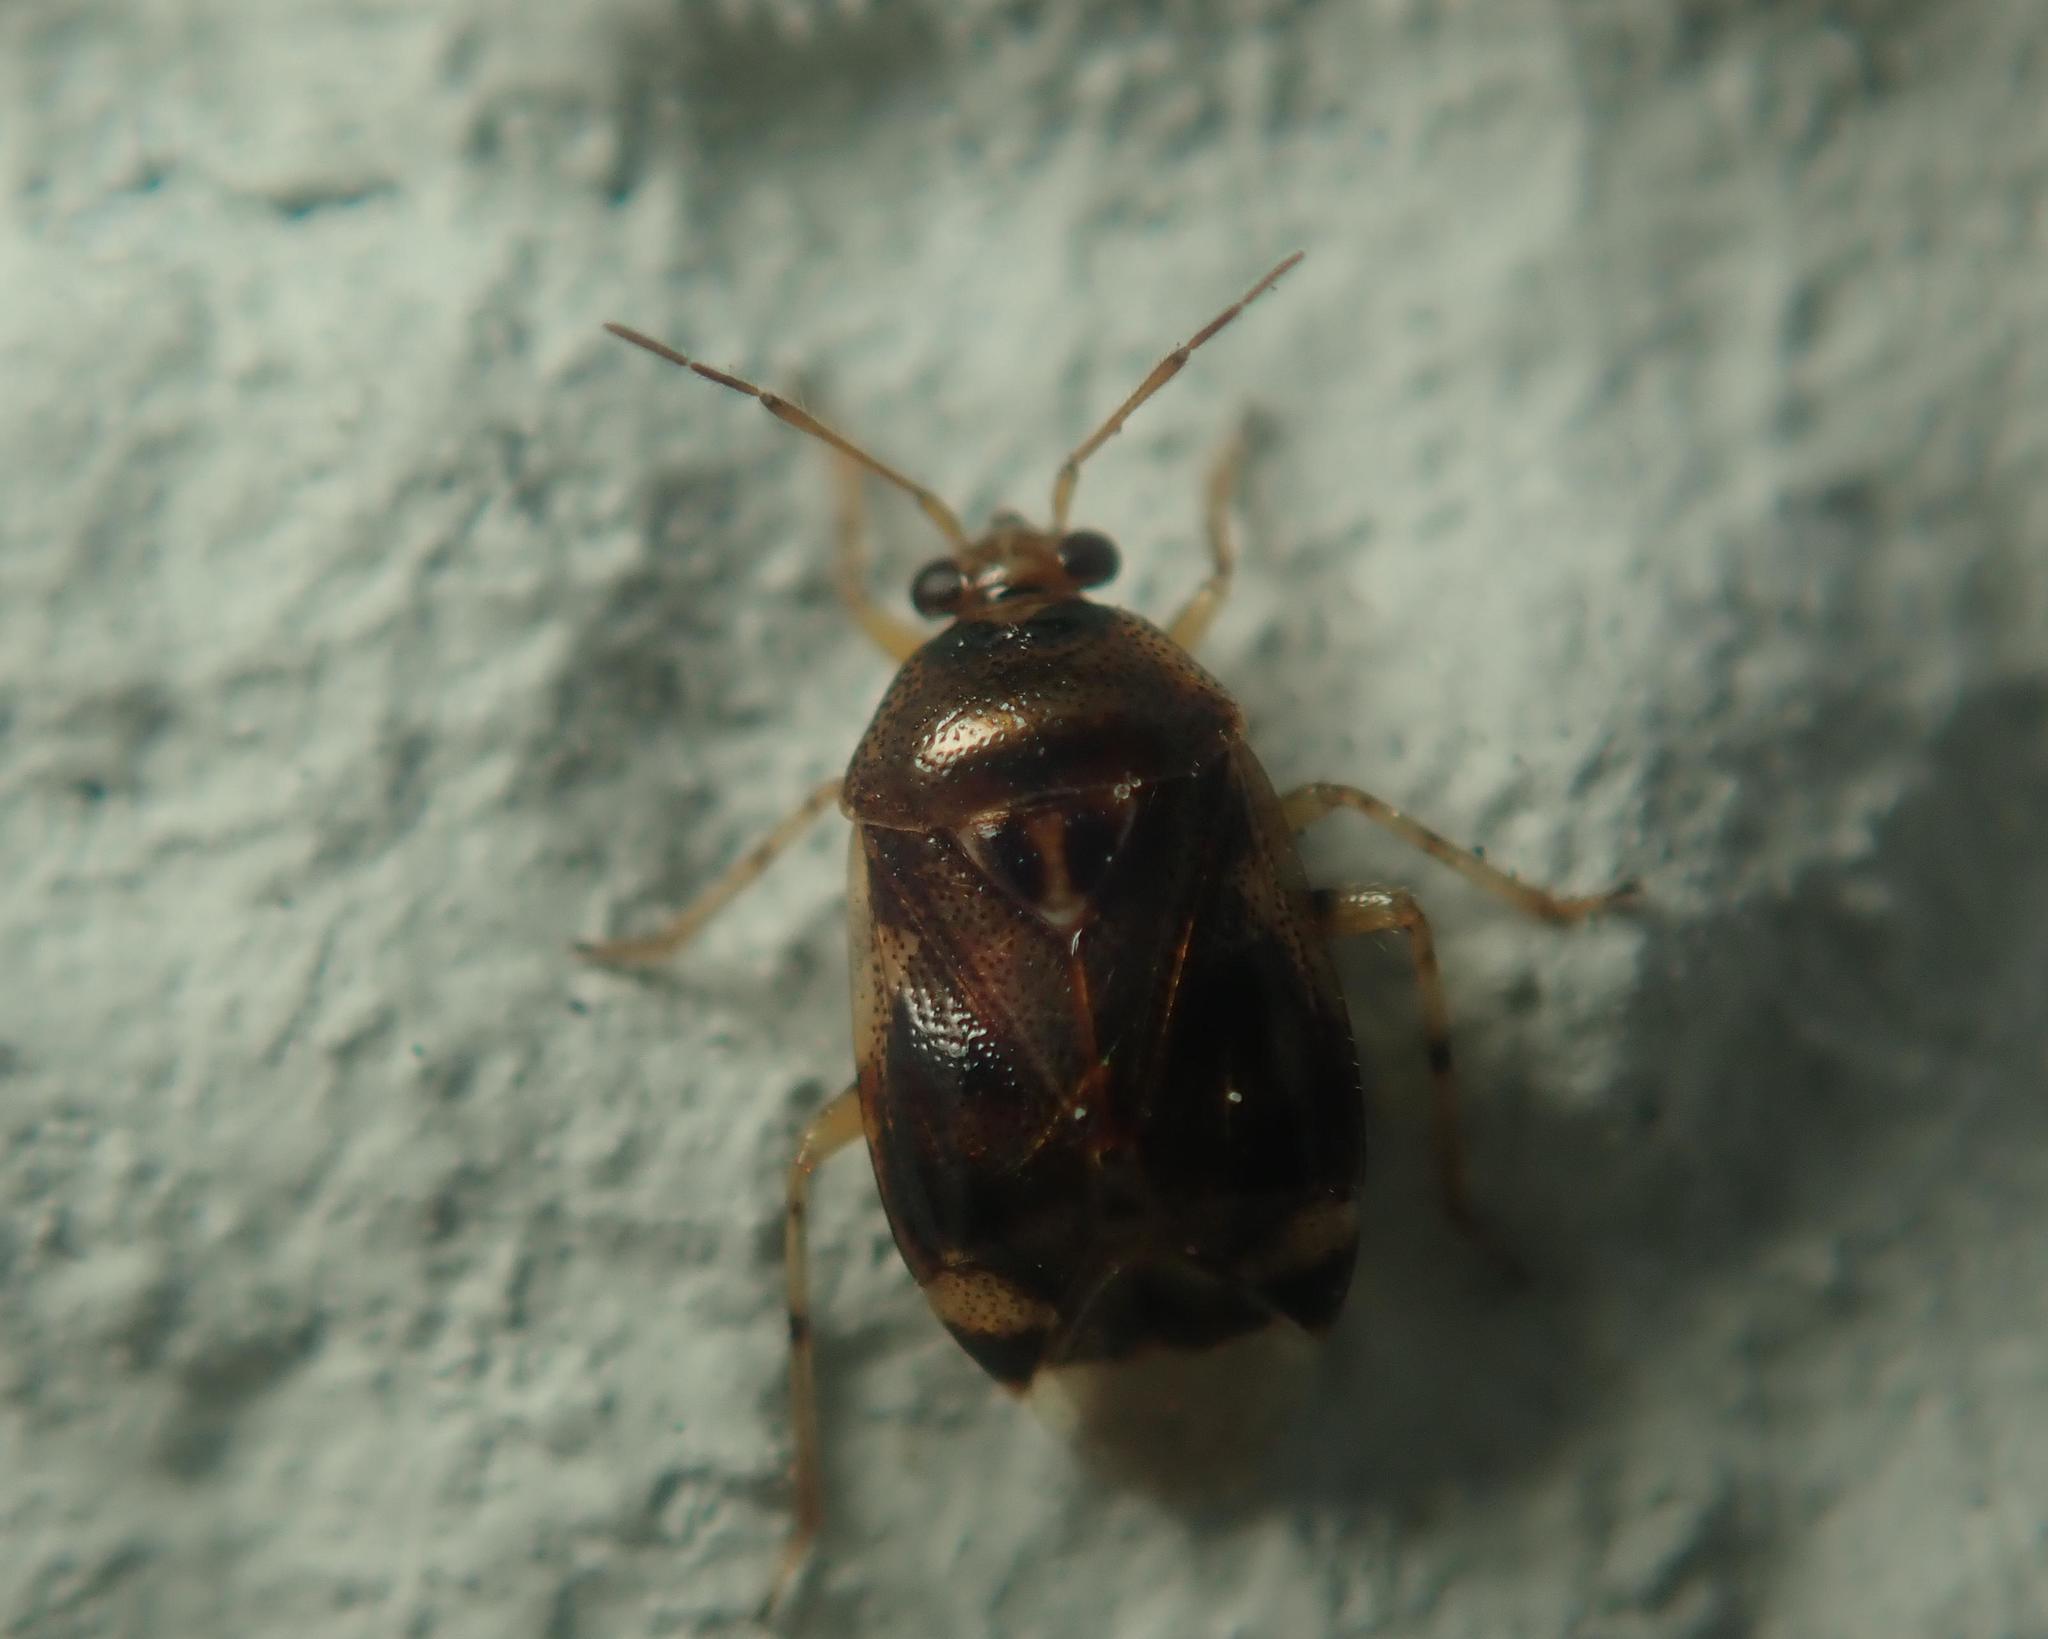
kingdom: Animalia
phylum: Arthropoda
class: Insecta
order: Hemiptera
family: Miridae
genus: Deraeocoris
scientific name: Deraeocoris lutescens
